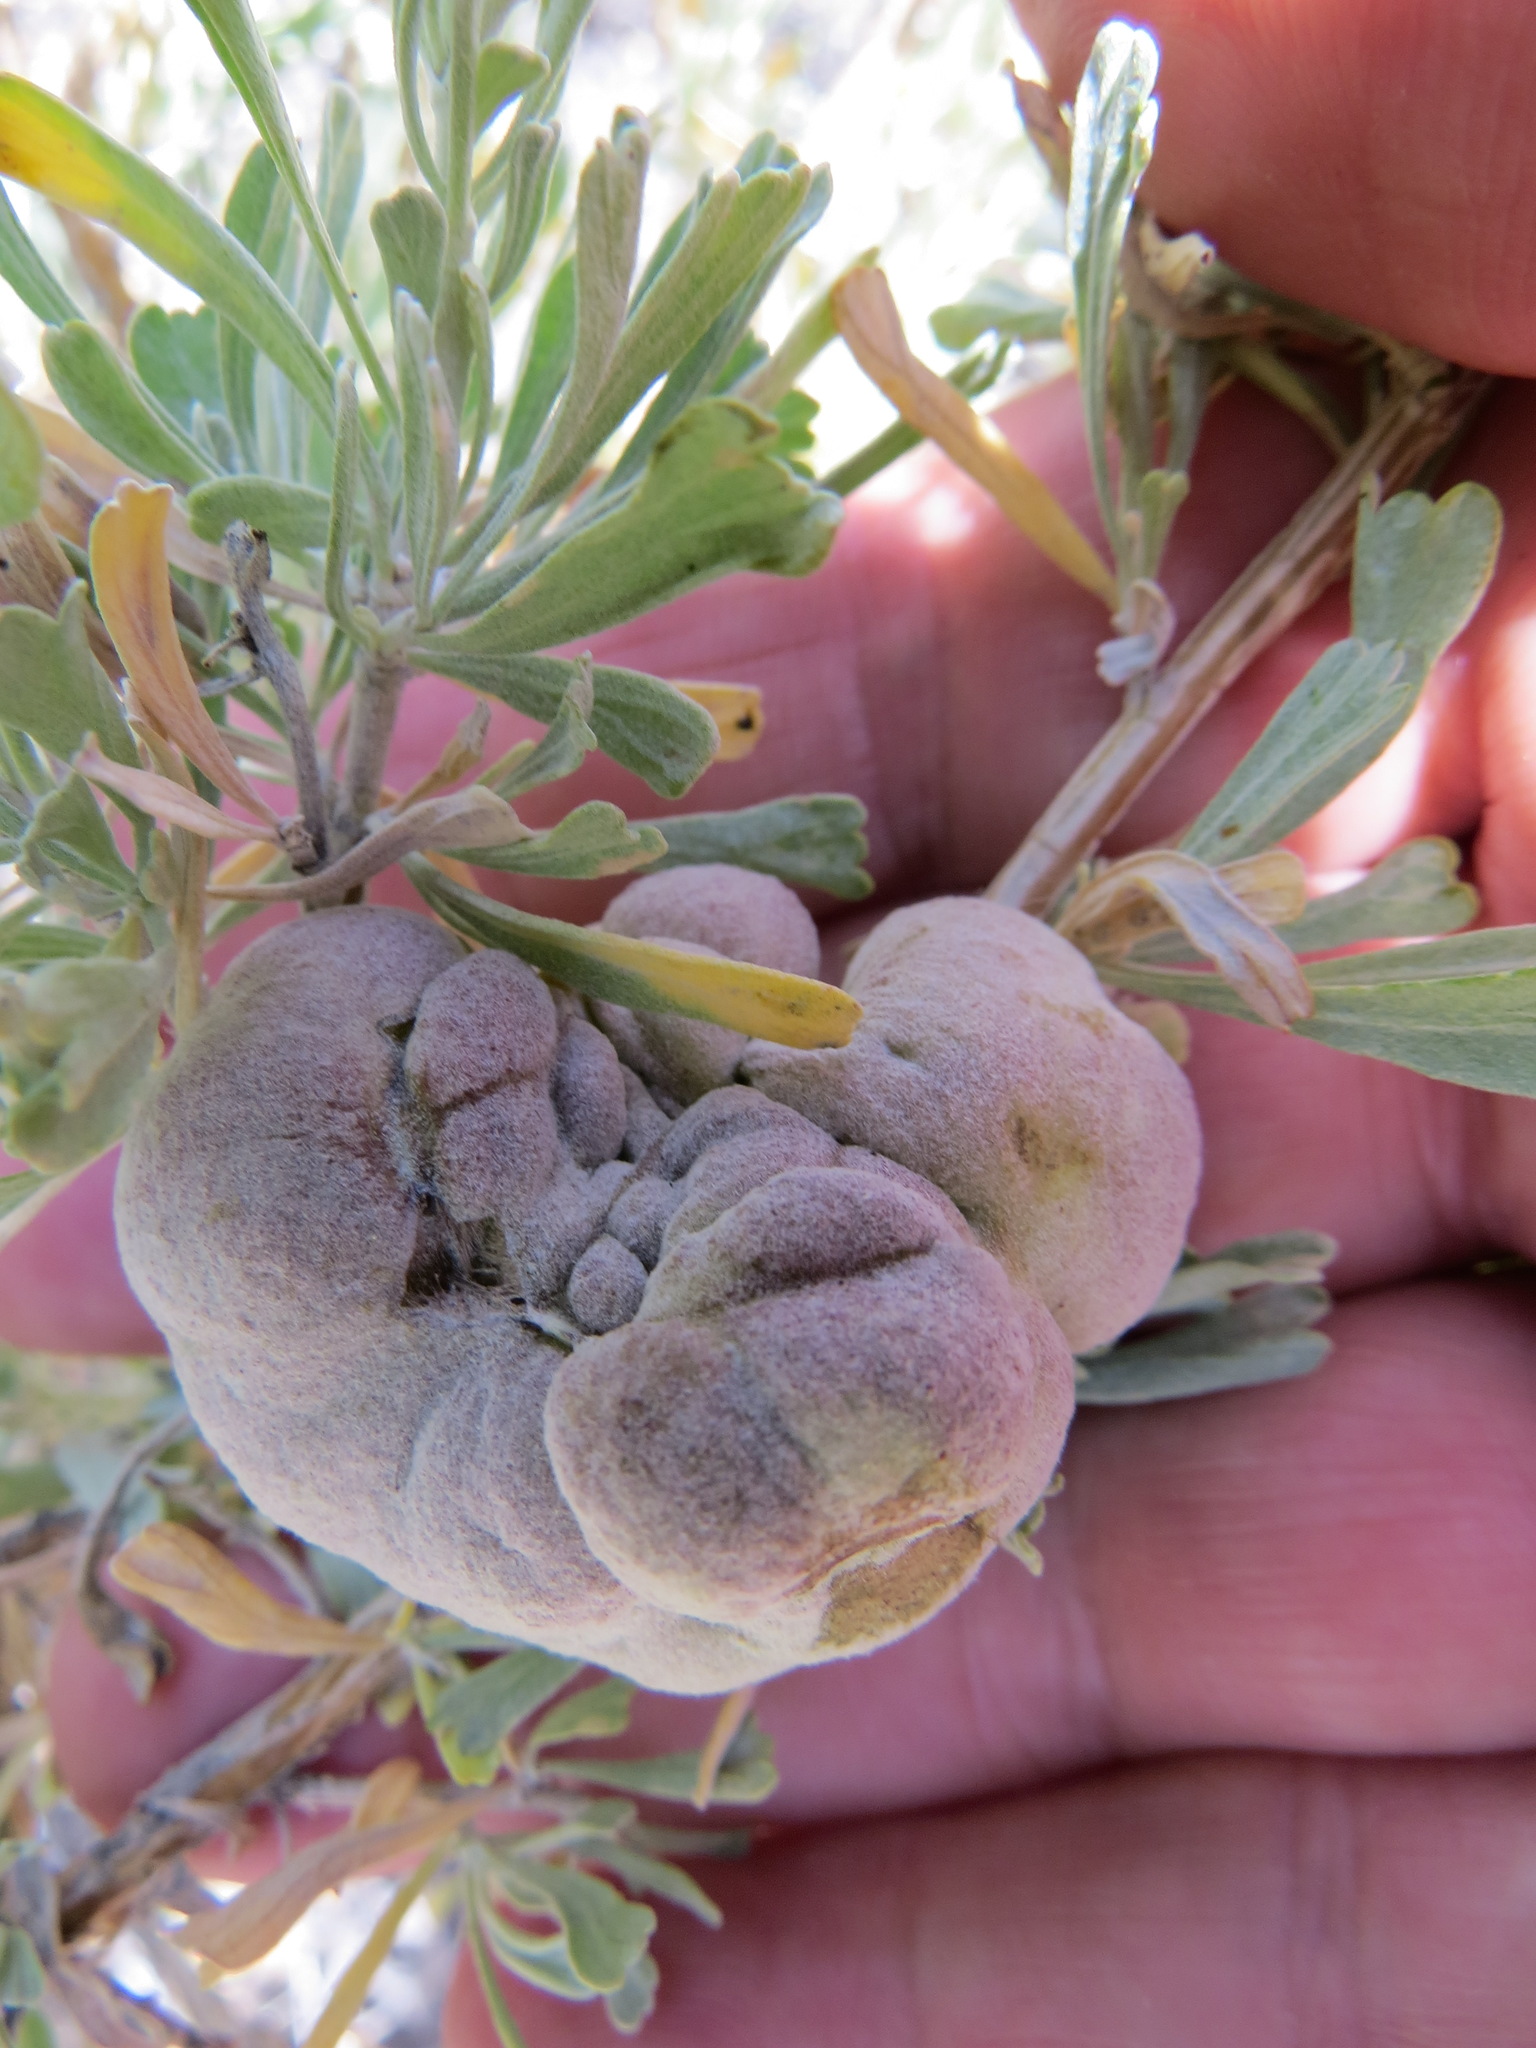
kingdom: Animalia
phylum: Arthropoda
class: Insecta
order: Diptera
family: Cecidomyiidae
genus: Rhopalomyia
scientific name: Rhopalomyia pomum
